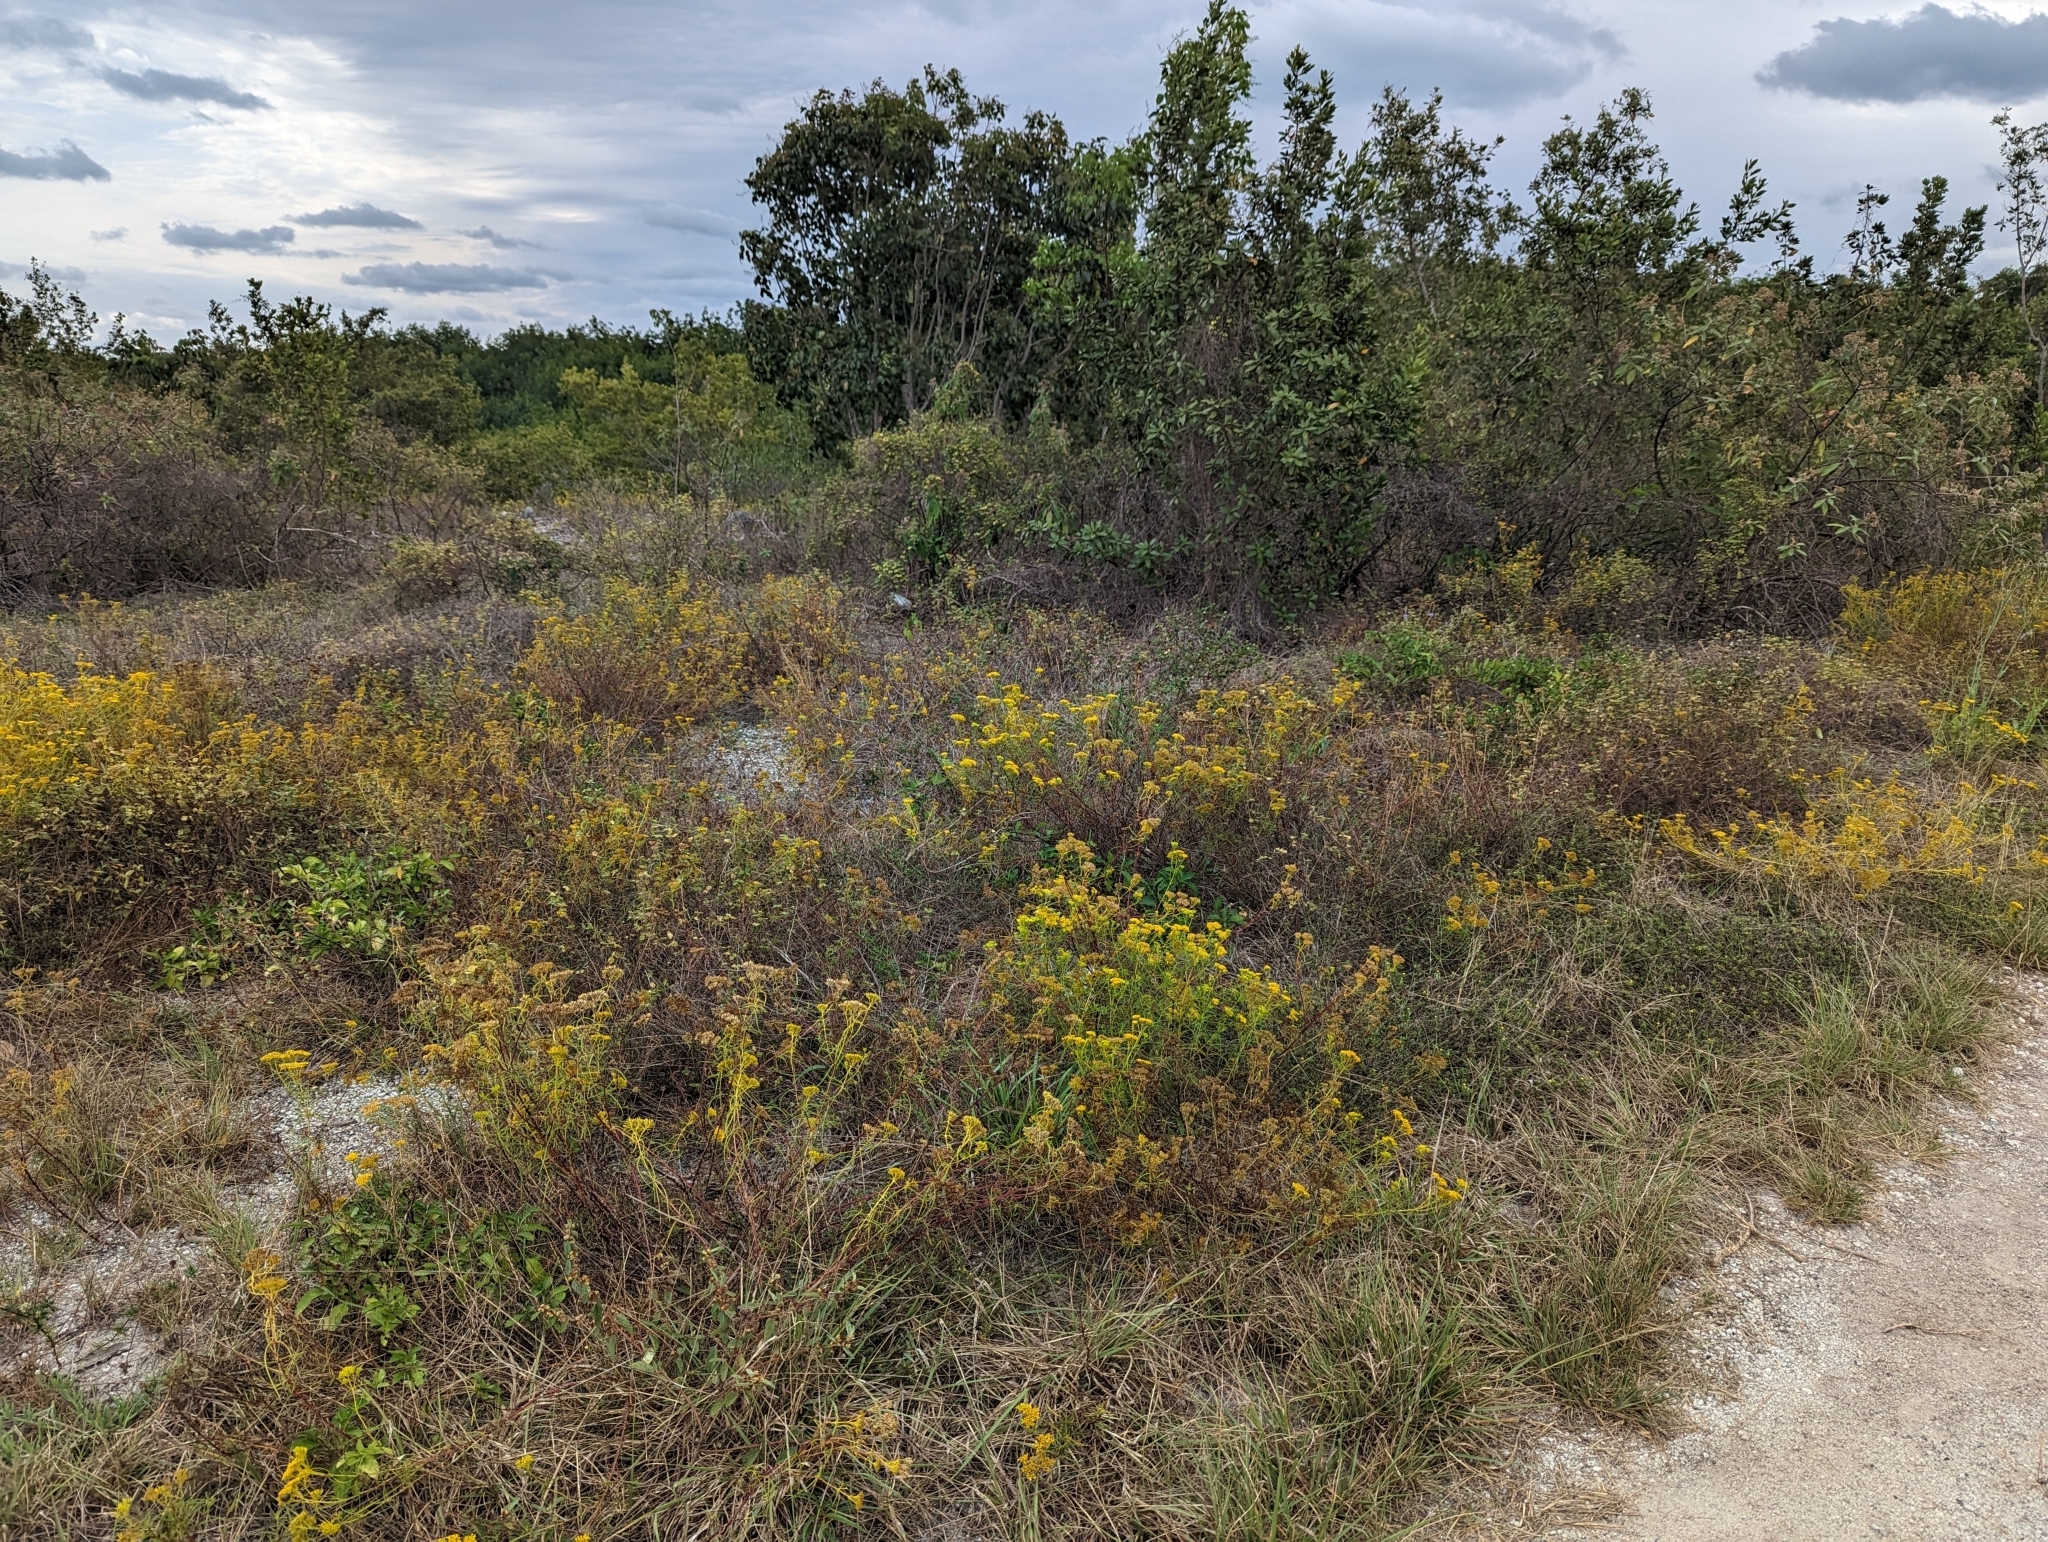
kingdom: Plantae
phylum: Tracheophyta
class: Magnoliopsida
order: Asterales
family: Asteraceae
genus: Flaveria
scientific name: Flaveria linearis
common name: Yellowtop
